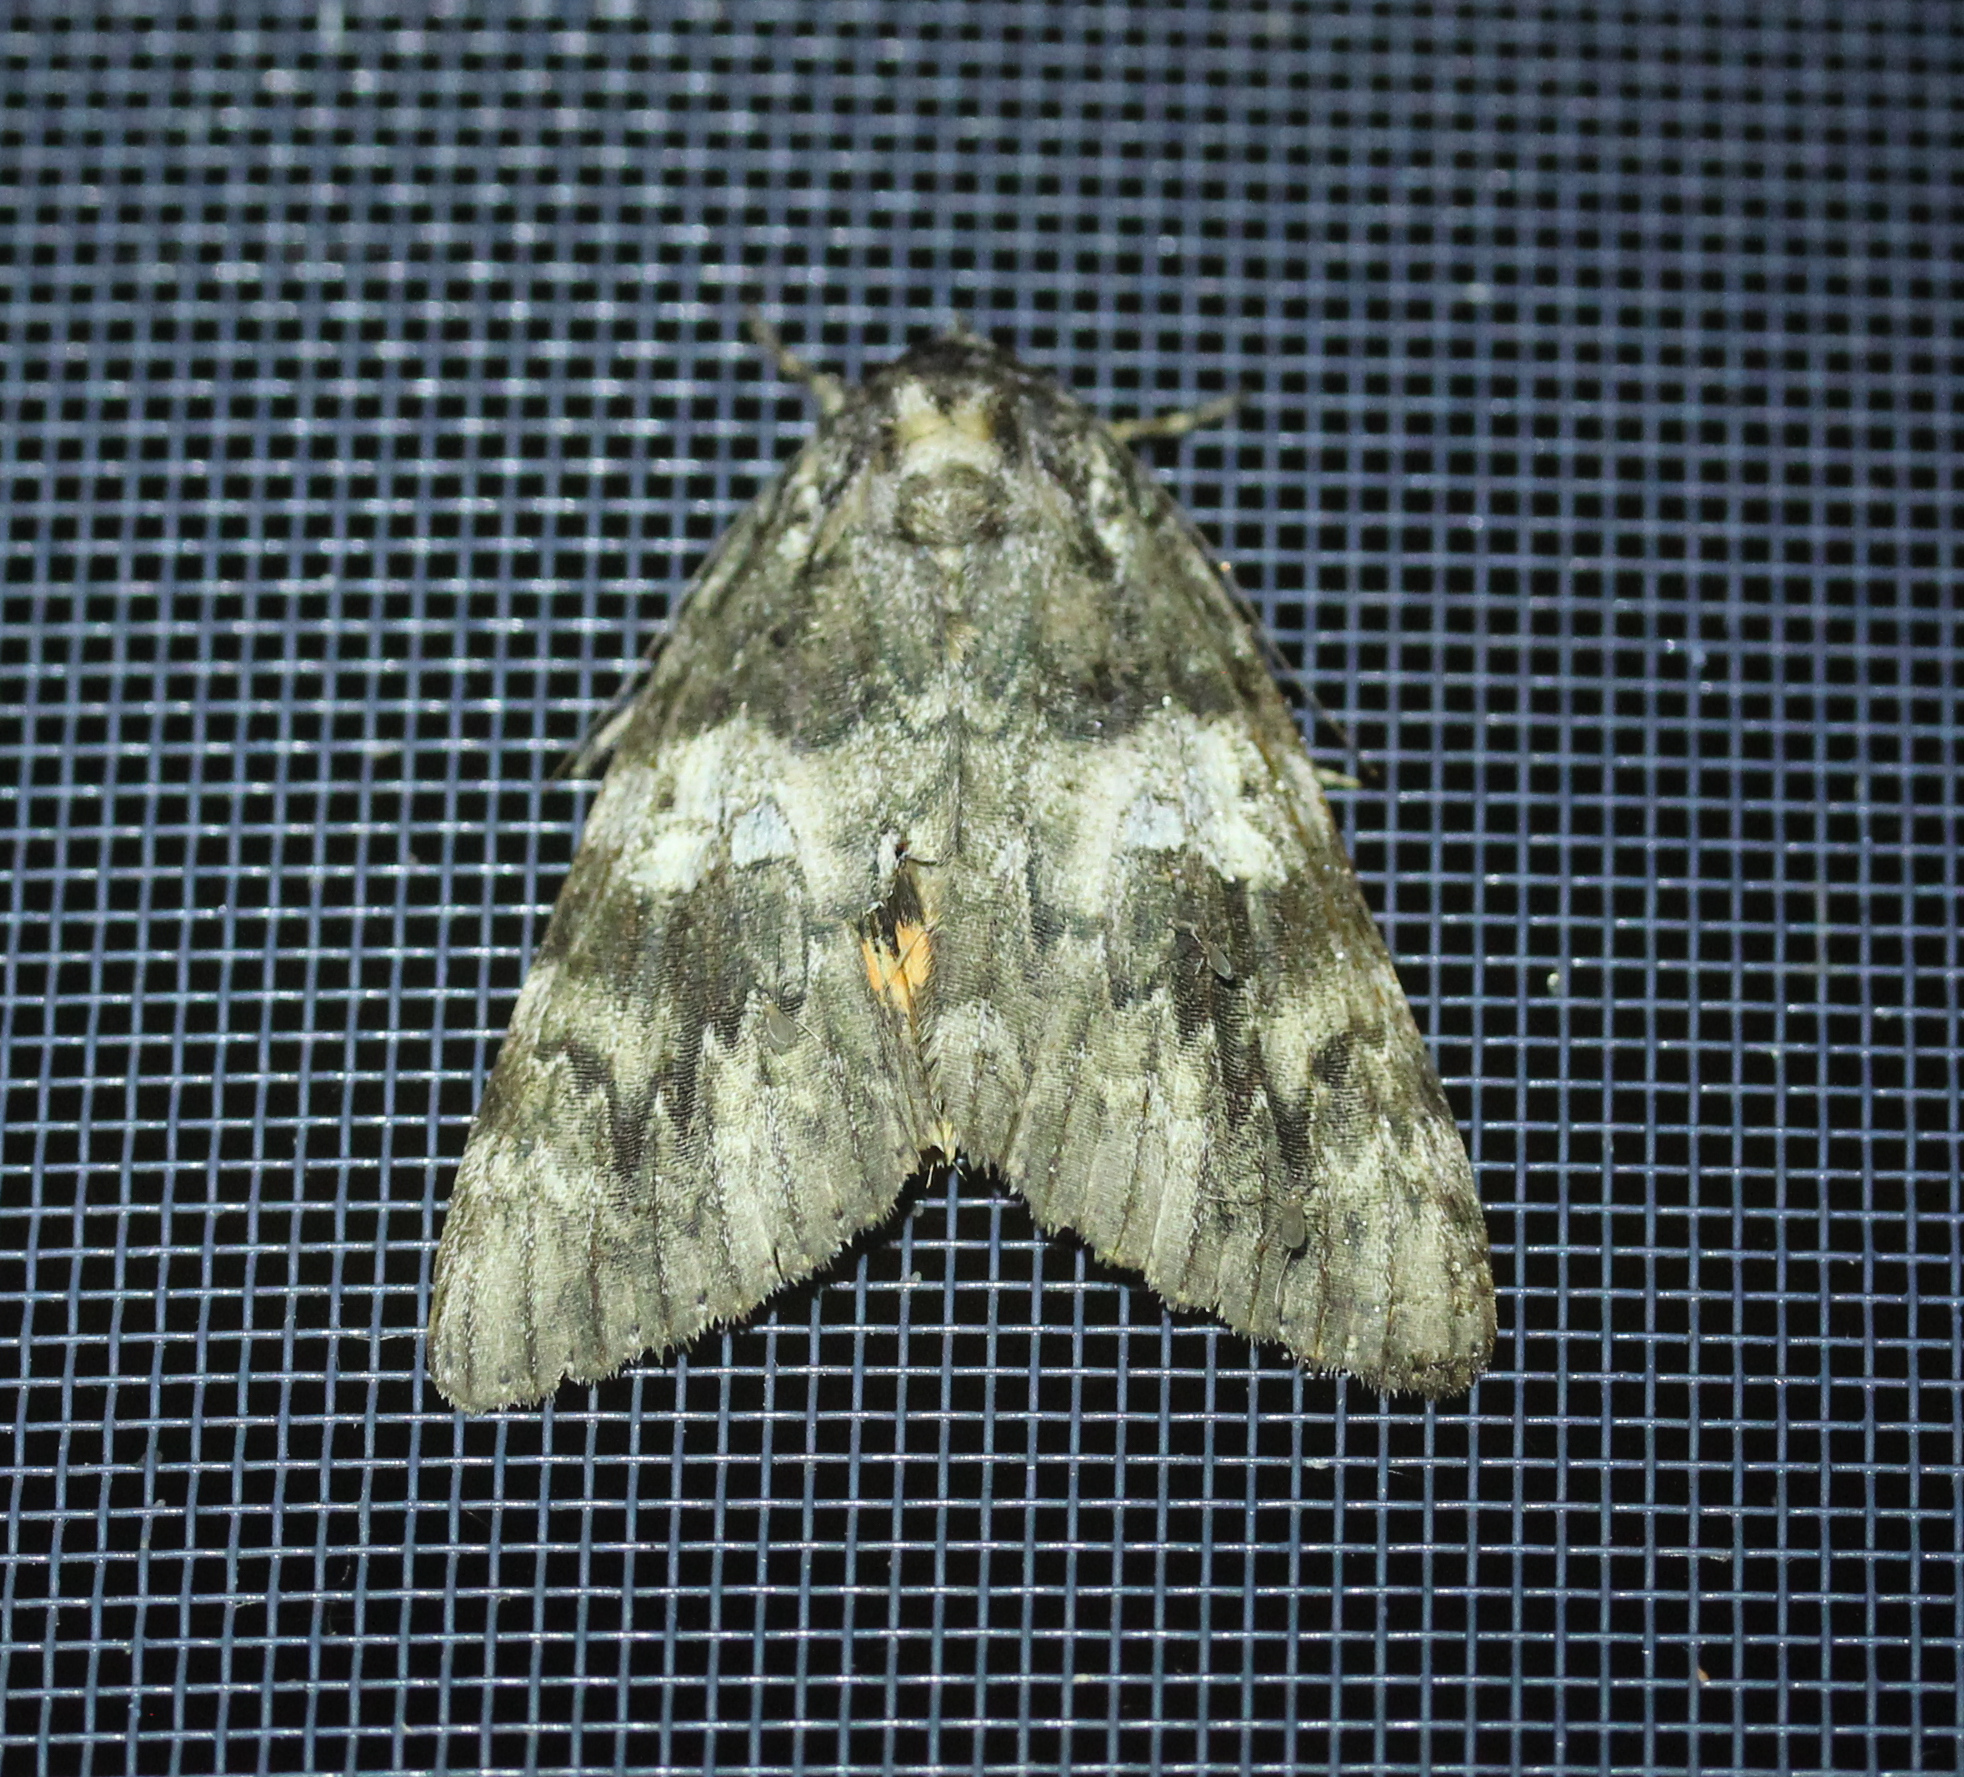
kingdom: Animalia
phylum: Arthropoda
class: Insecta
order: Lepidoptera
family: Erebidae
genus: Catocala
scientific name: Catocala ilia
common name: Ilia underwing
